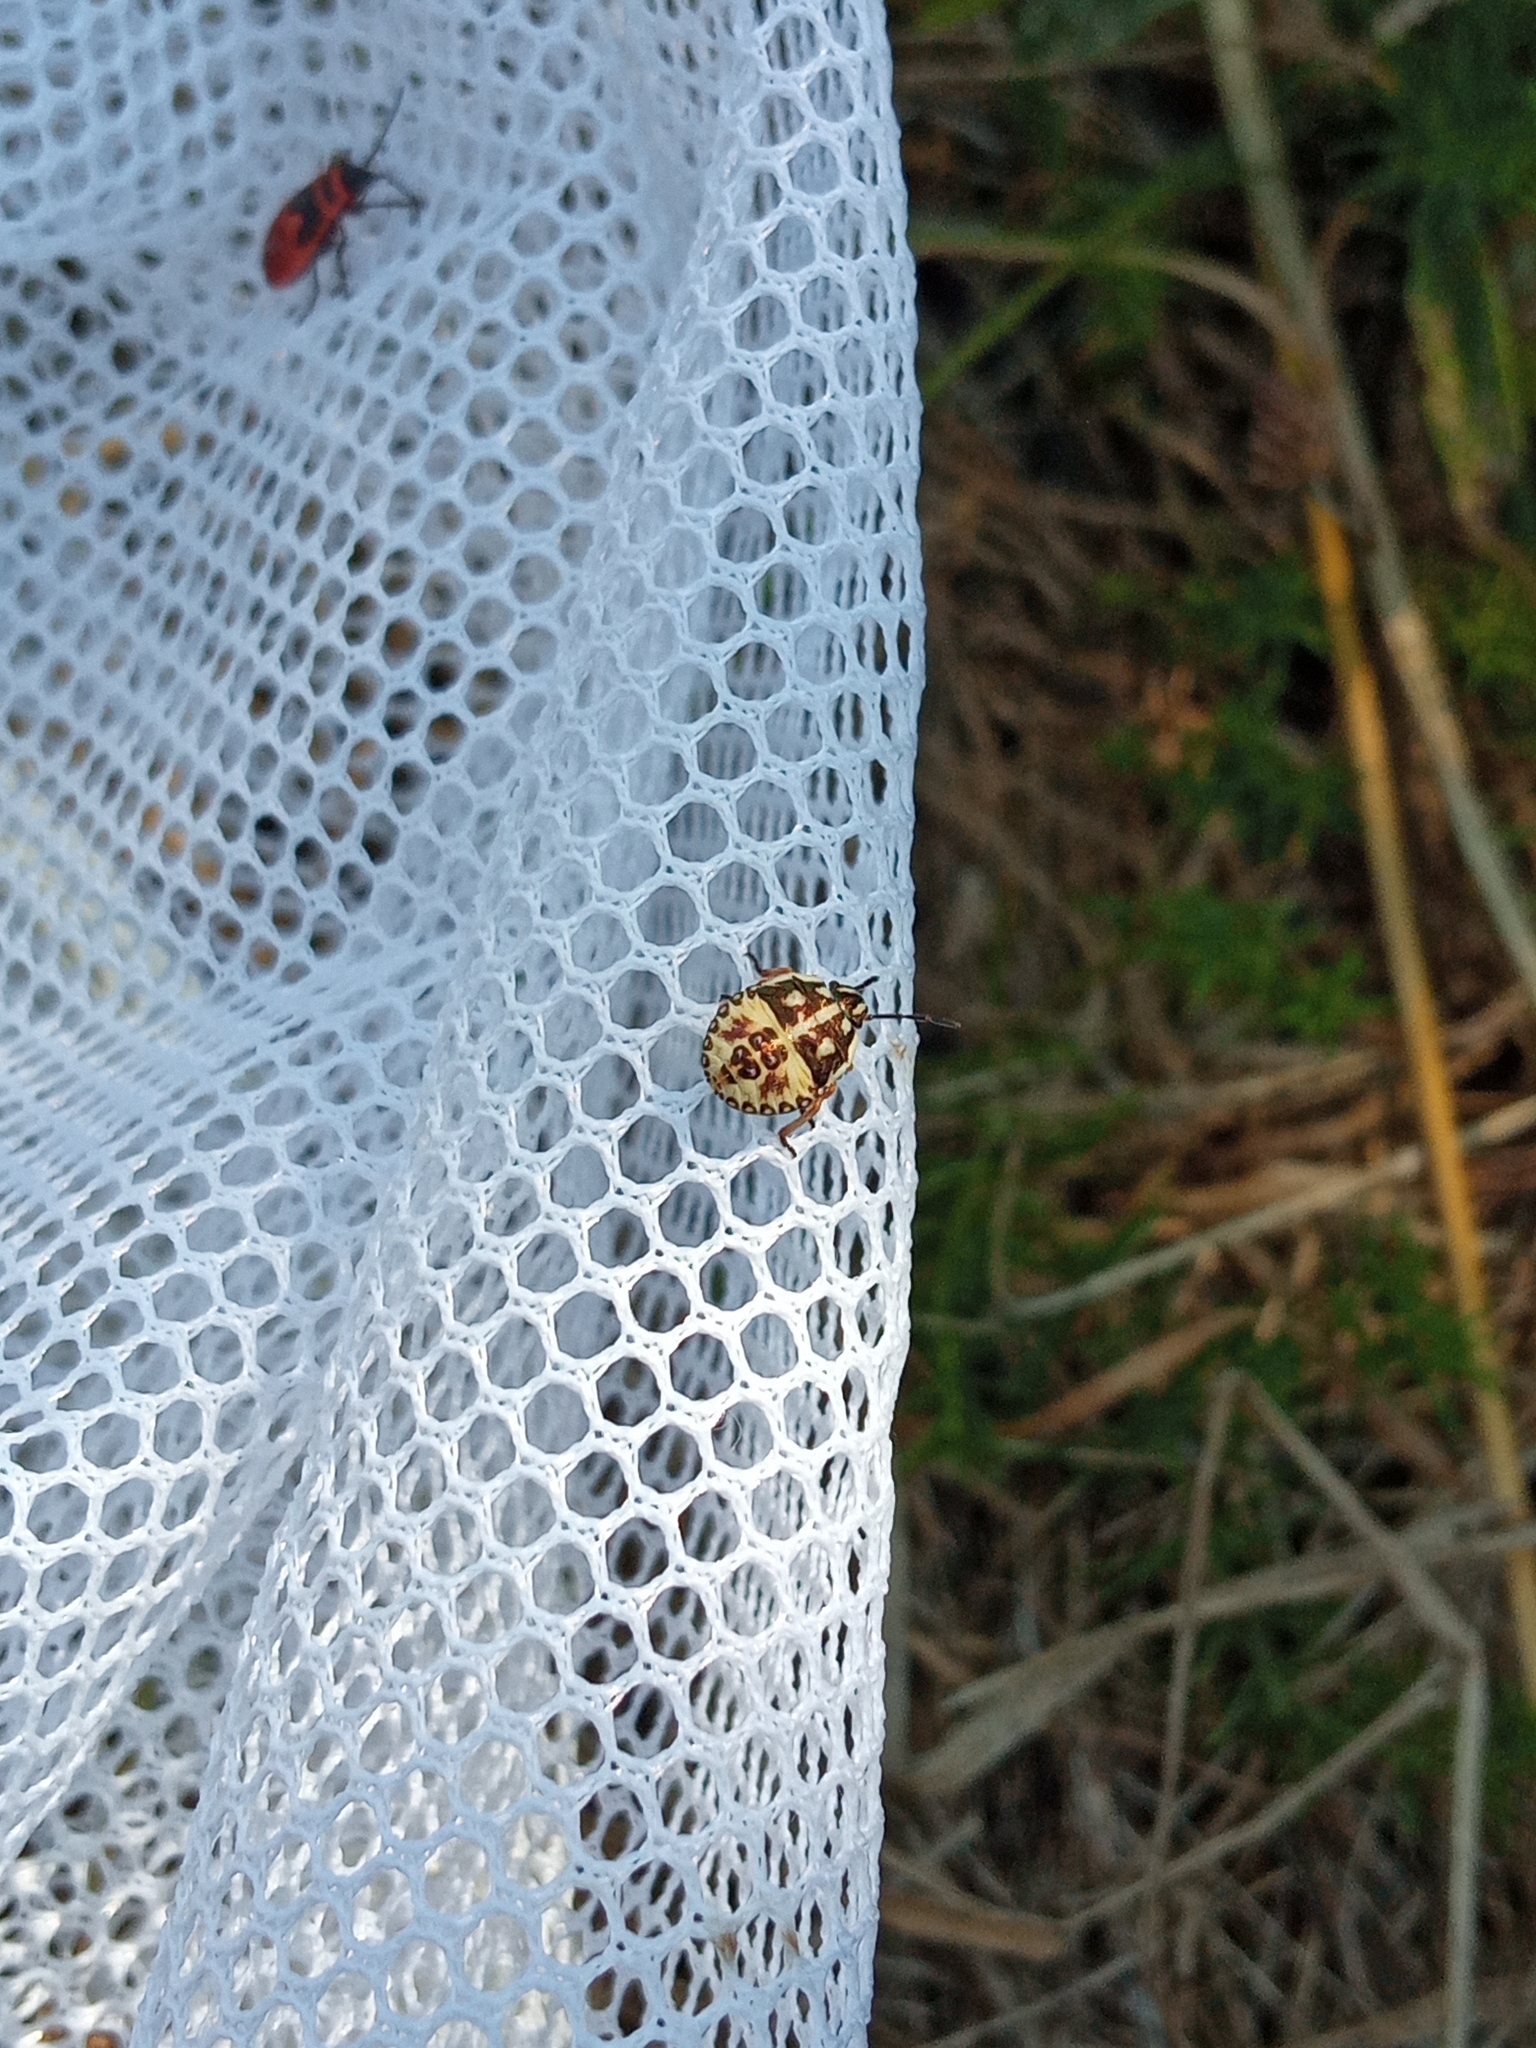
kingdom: Animalia
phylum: Arthropoda
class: Insecta
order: Hemiptera
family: Pentatomidae
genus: Carpocoris
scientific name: Carpocoris
